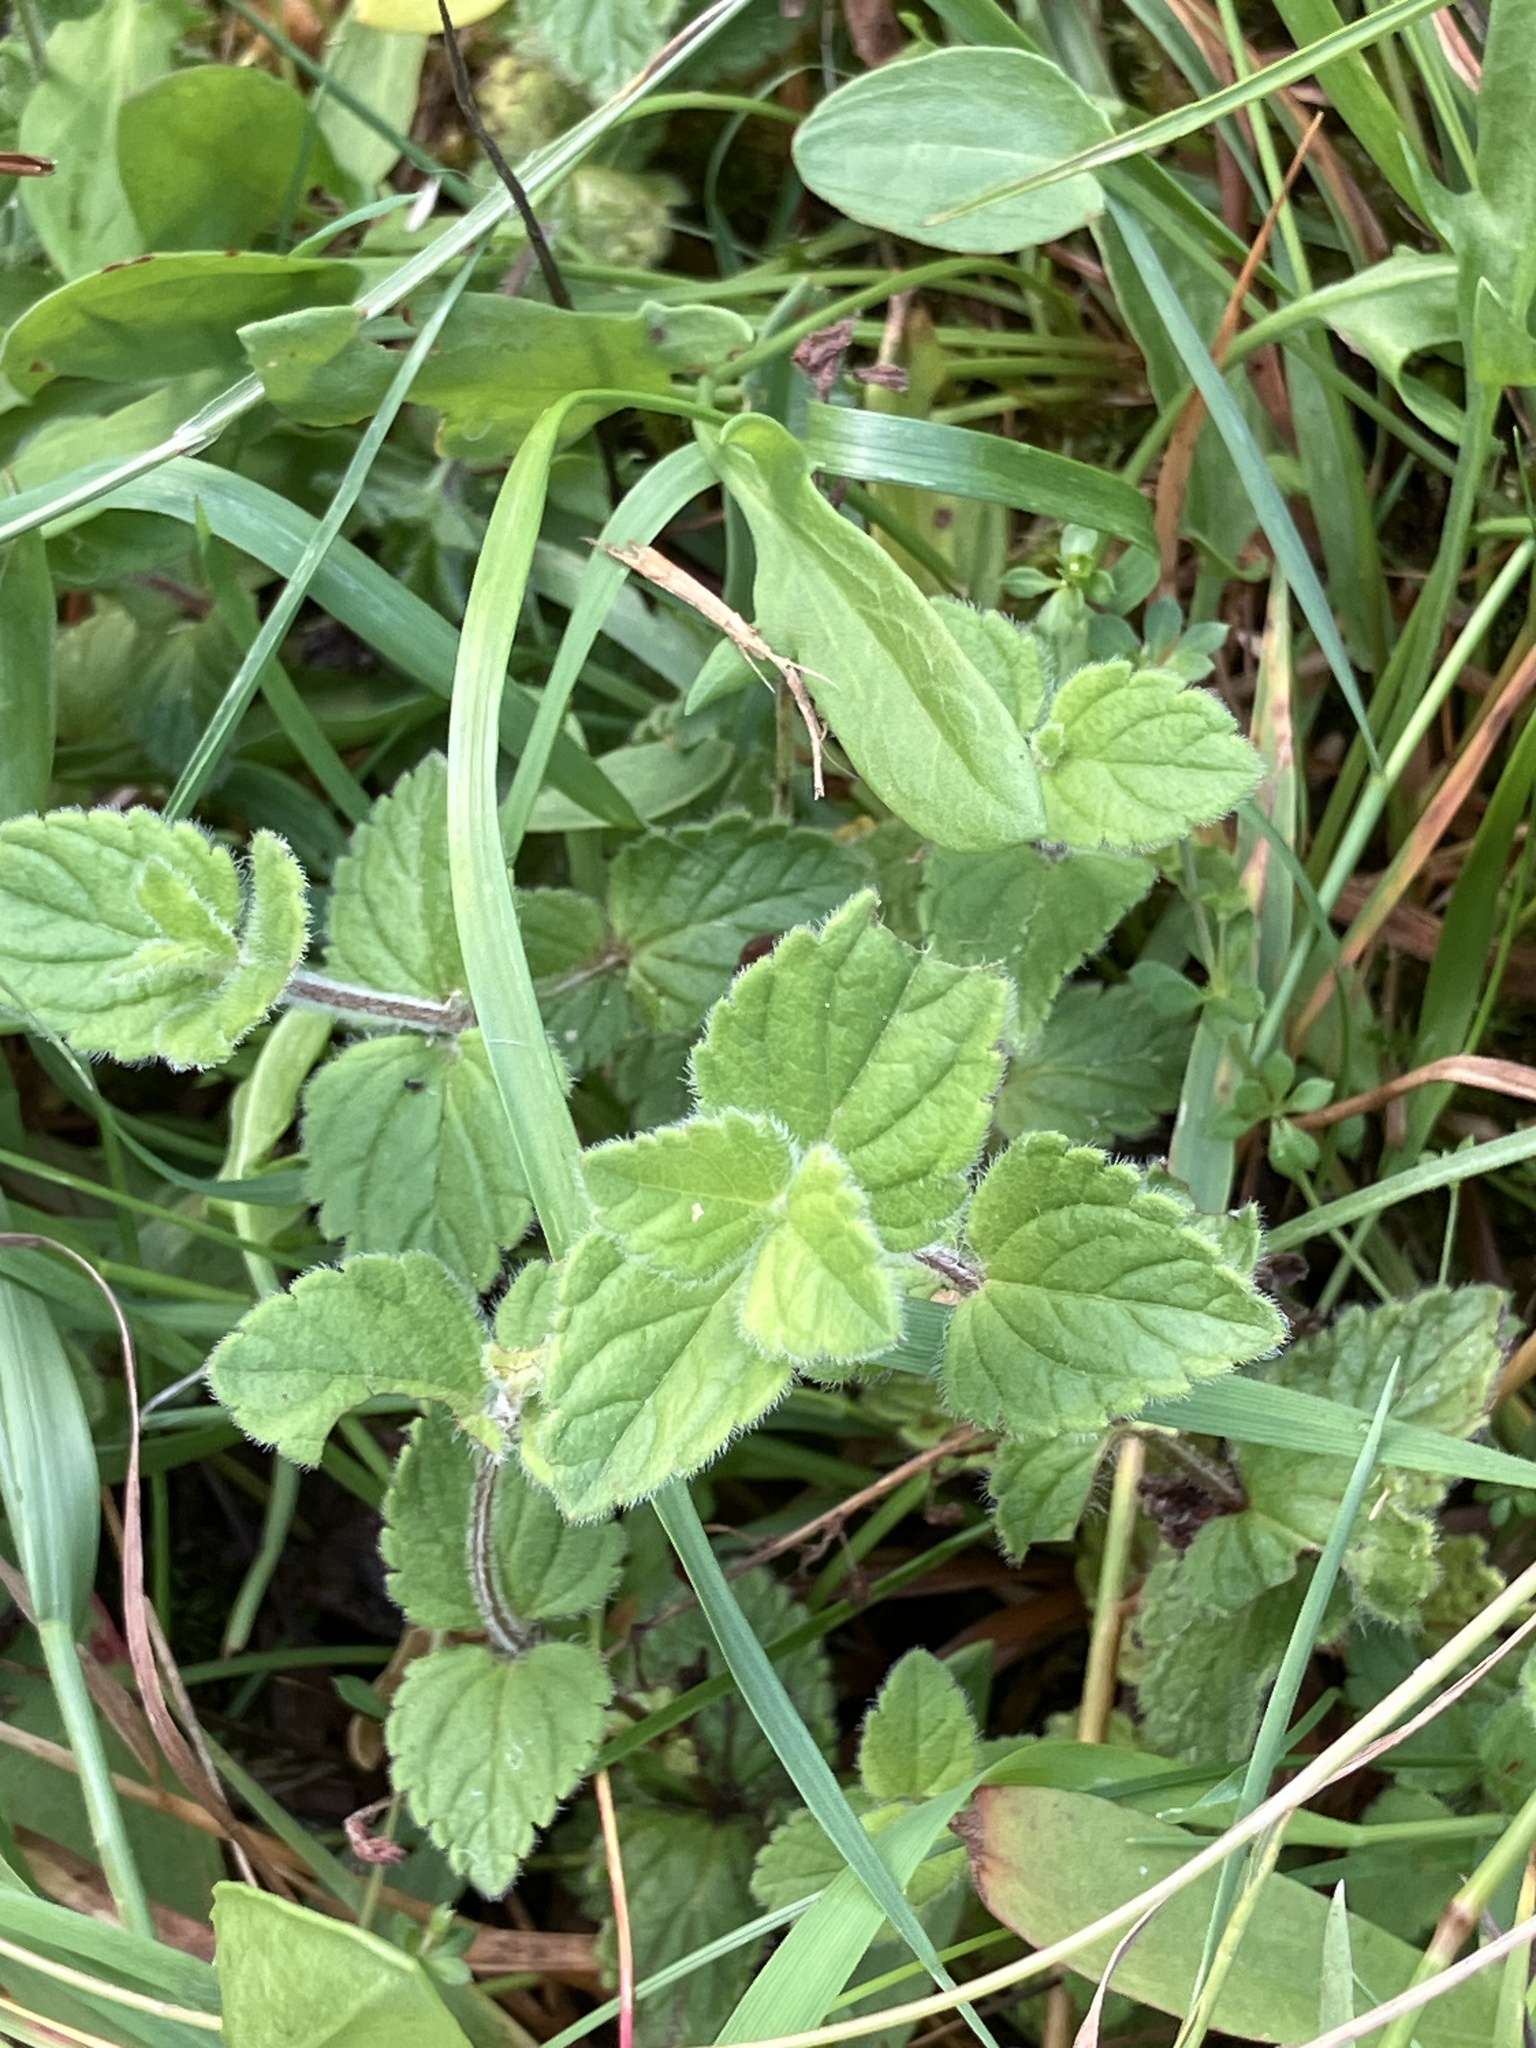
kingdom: Plantae
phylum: Tracheophyta
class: Magnoliopsida
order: Lamiales
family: Plantaginaceae
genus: Veronica
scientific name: Veronica chamaedrys
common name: Germander speedwell
